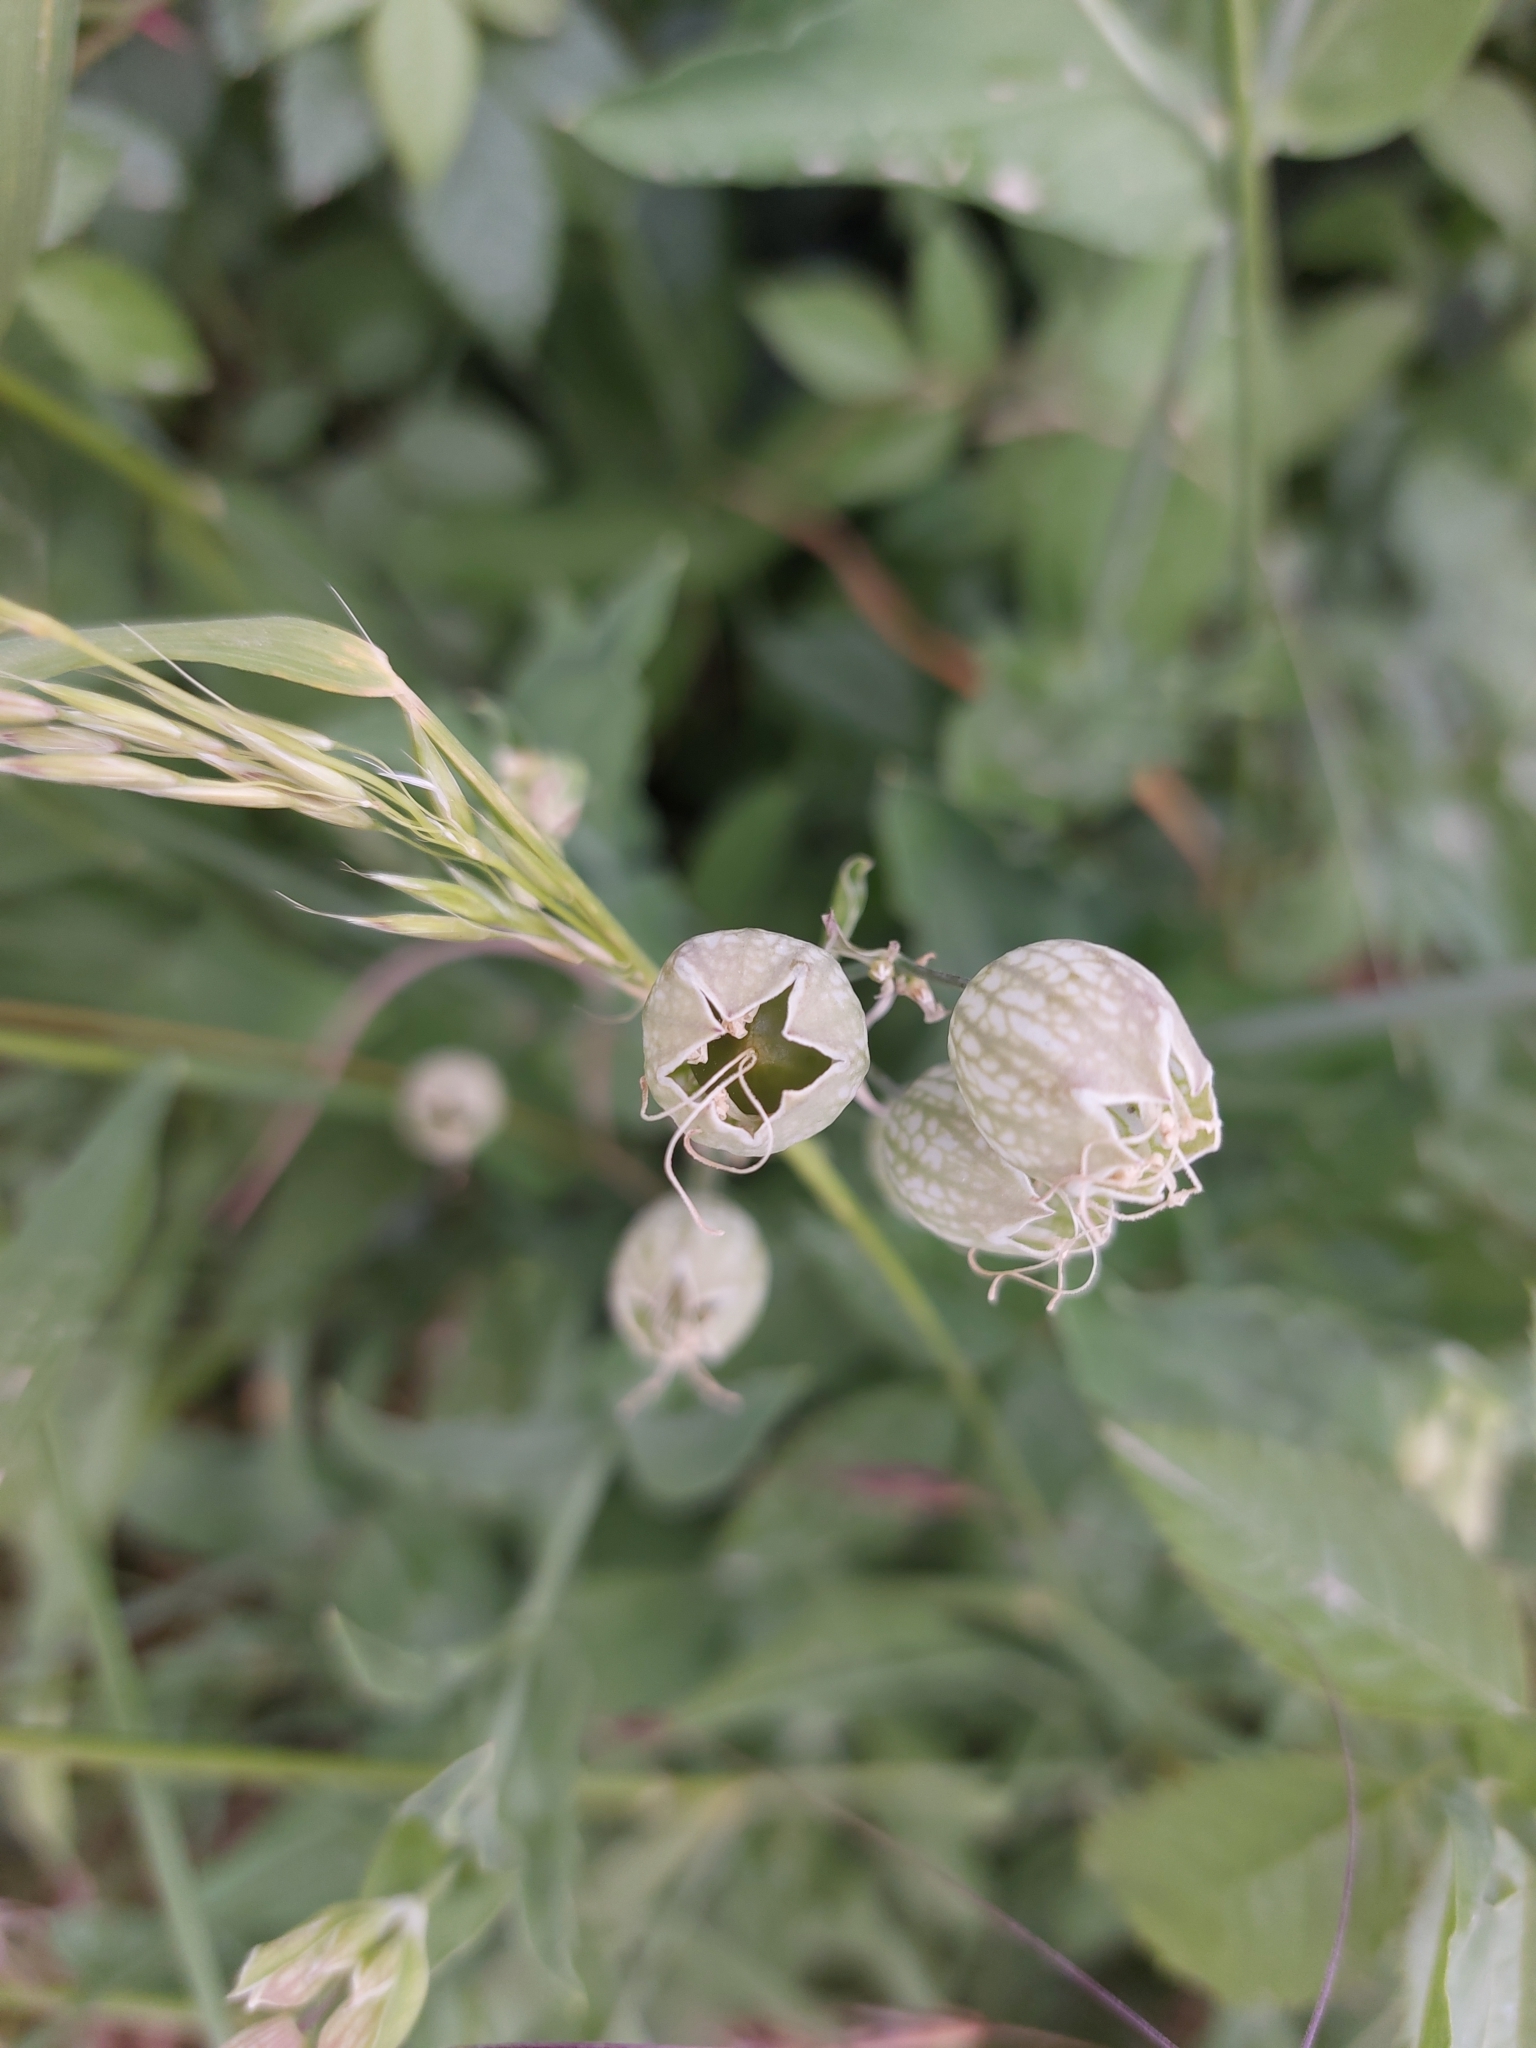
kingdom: Plantae
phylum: Tracheophyta
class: Magnoliopsida
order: Caryophyllales
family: Caryophyllaceae
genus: Silene
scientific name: Silene vulgaris
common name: Bladder campion
